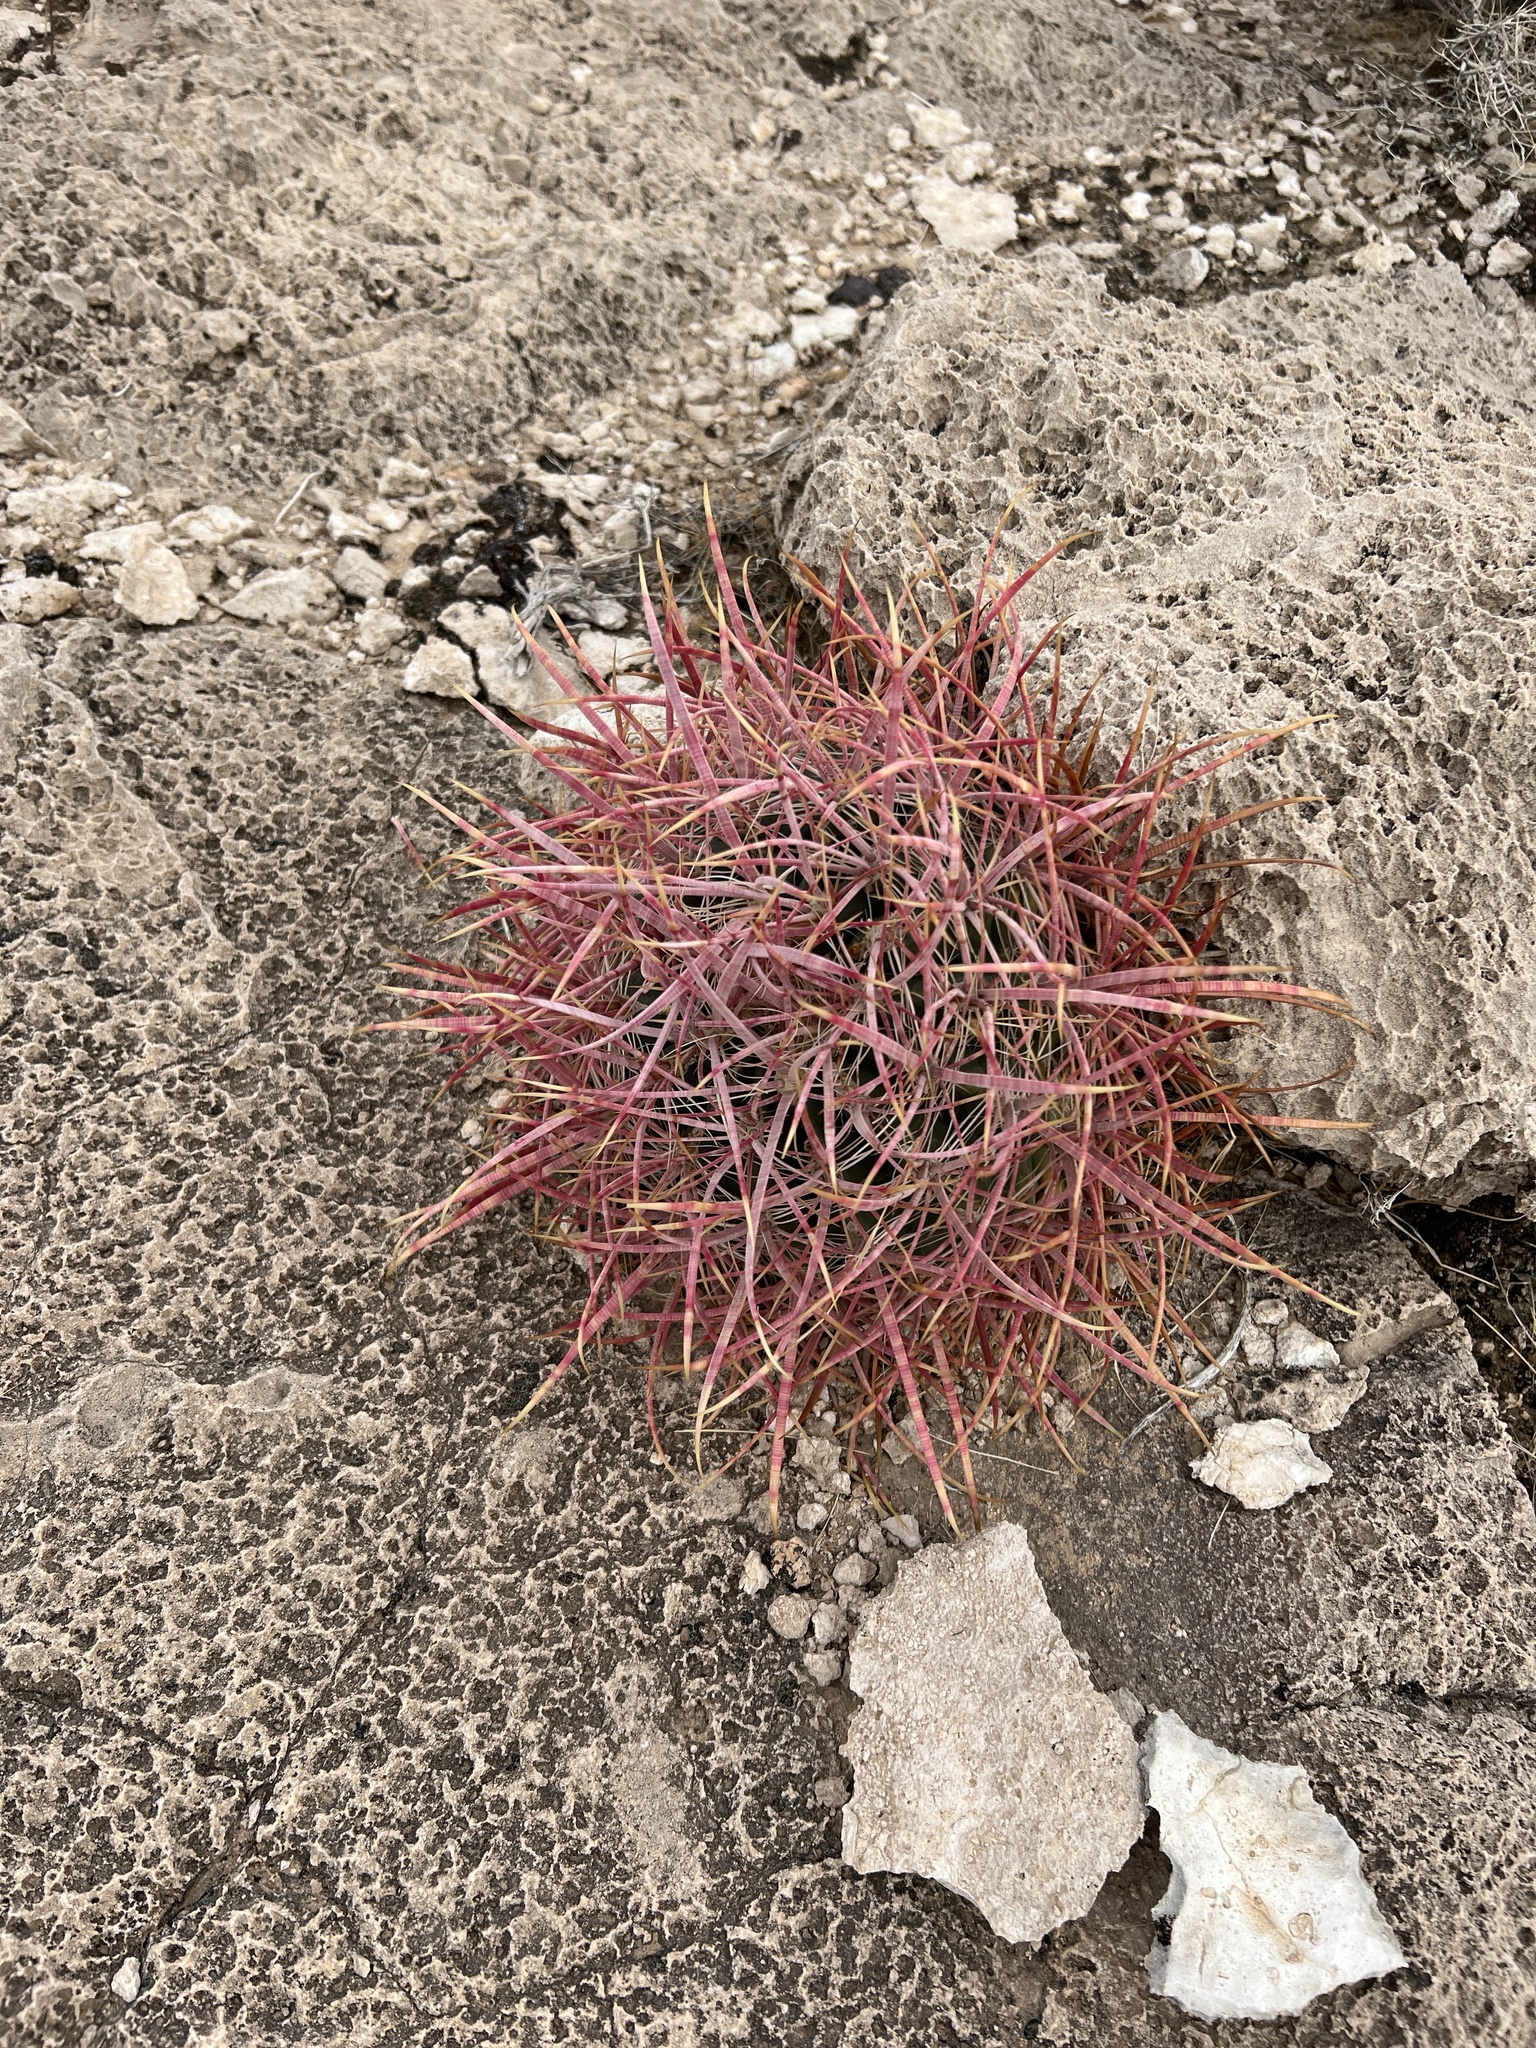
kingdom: Plantae
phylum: Tracheophyta
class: Magnoliopsida
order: Caryophyllales
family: Cactaceae
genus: Ferocactus
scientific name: Ferocactus cylindraceus
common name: California barrel cactus
